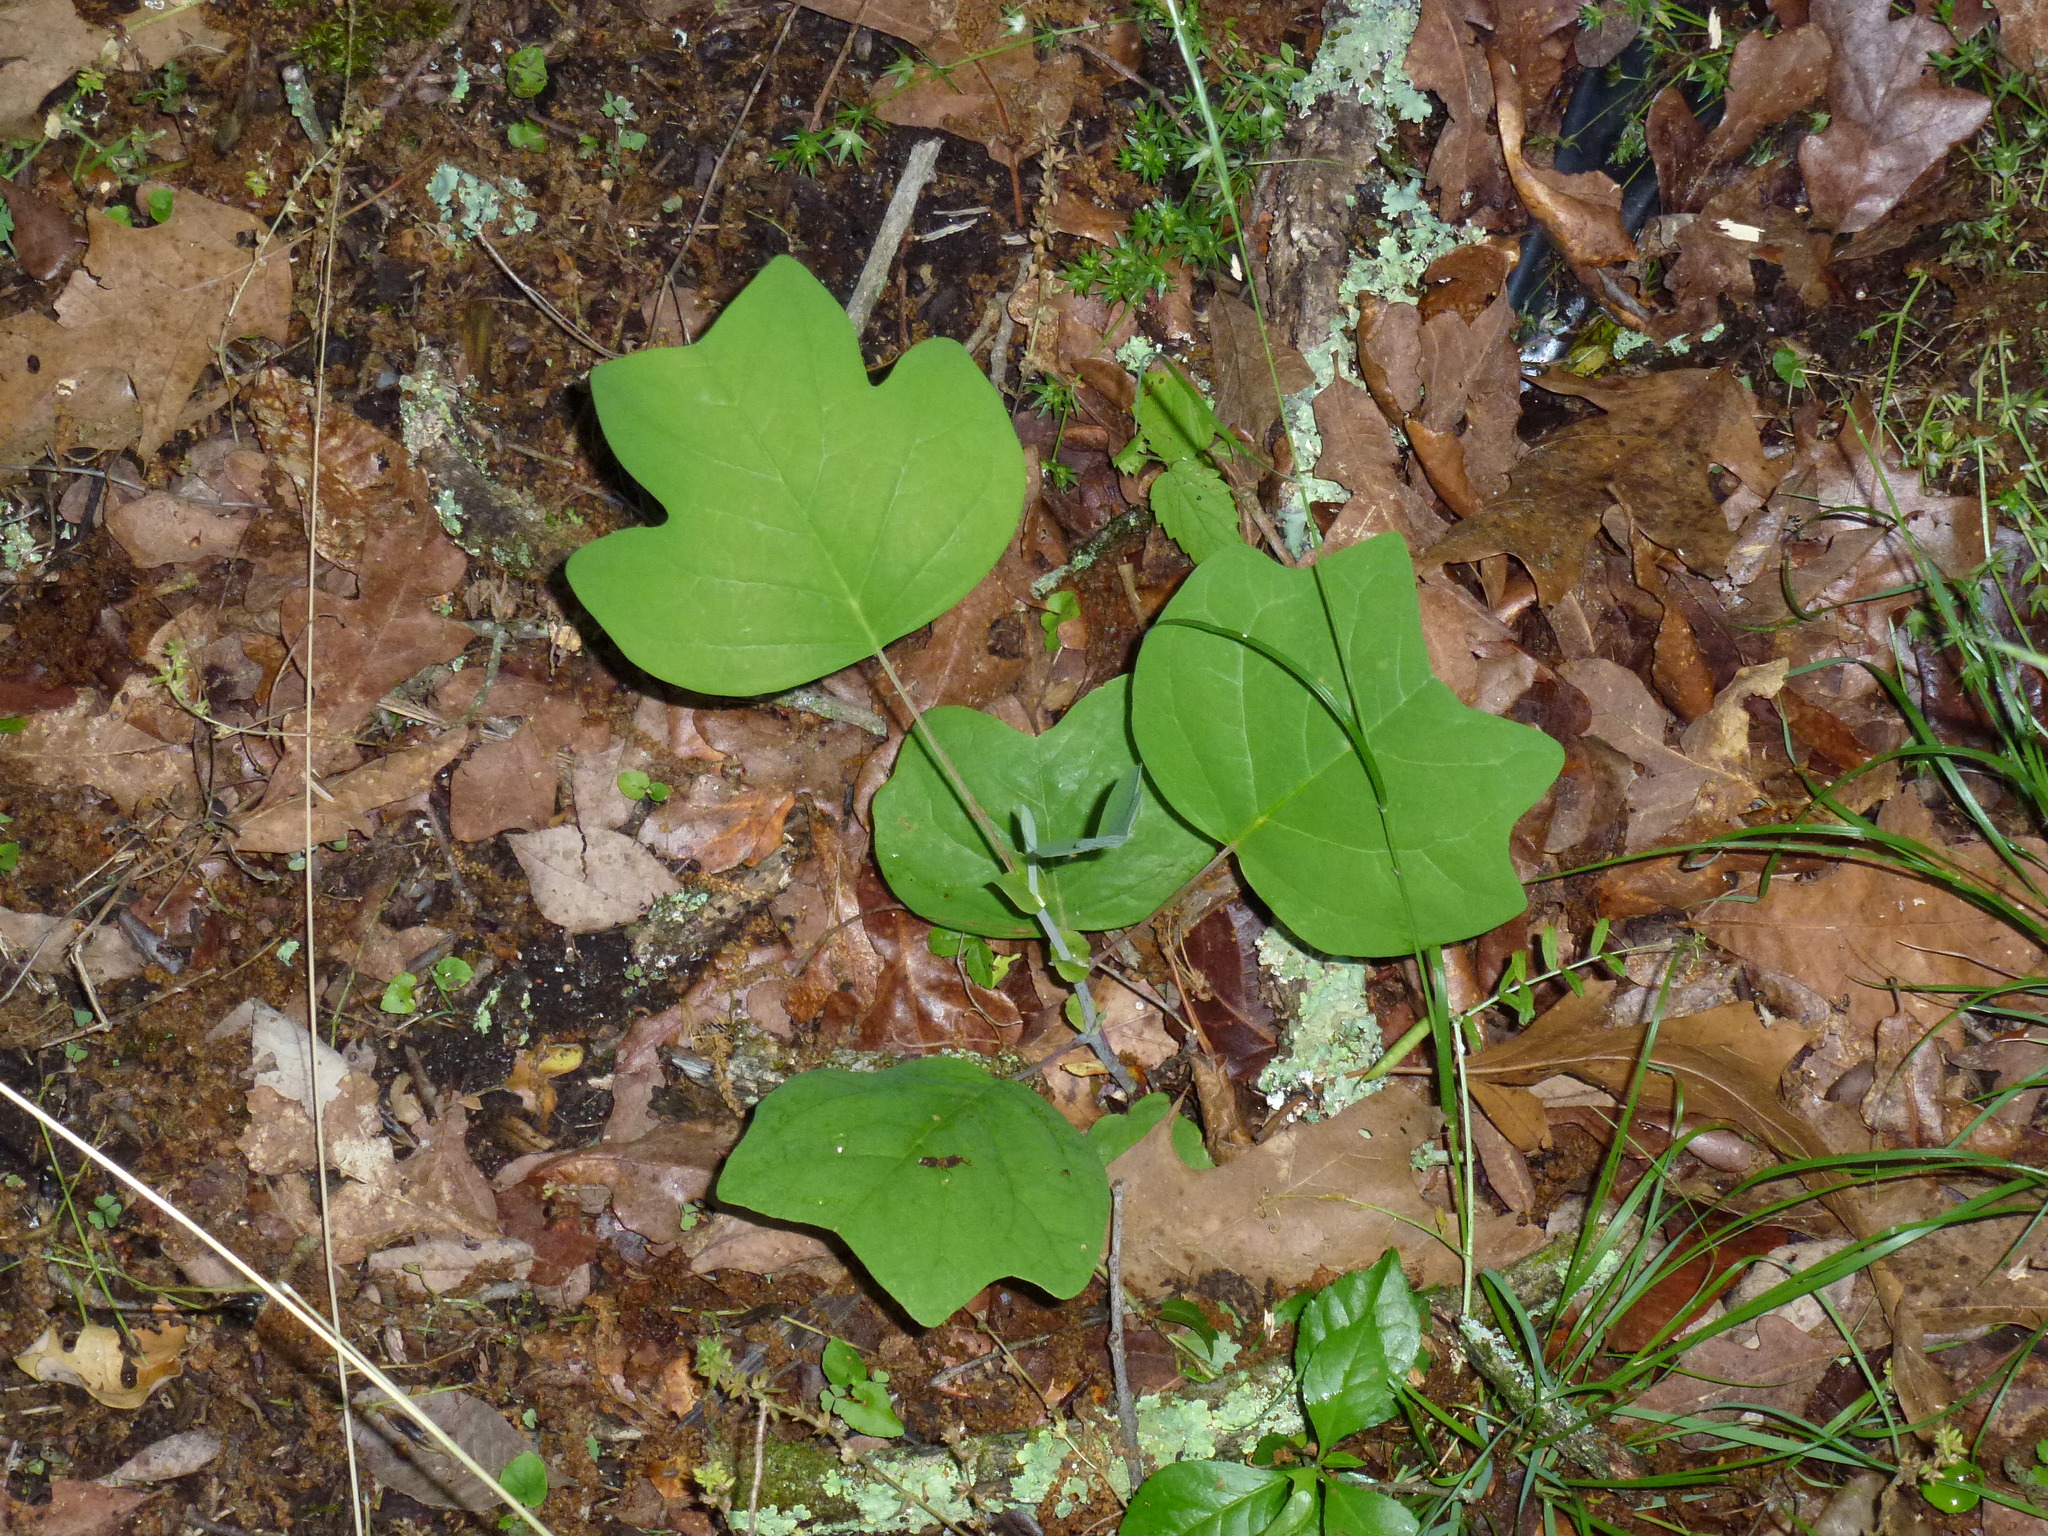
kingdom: Plantae
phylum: Tracheophyta
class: Magnoliopsida
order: Magnoliales
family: Magnoliaceae
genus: Liriodendron
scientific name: Liriodendron tulipifera
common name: Tulip tree
